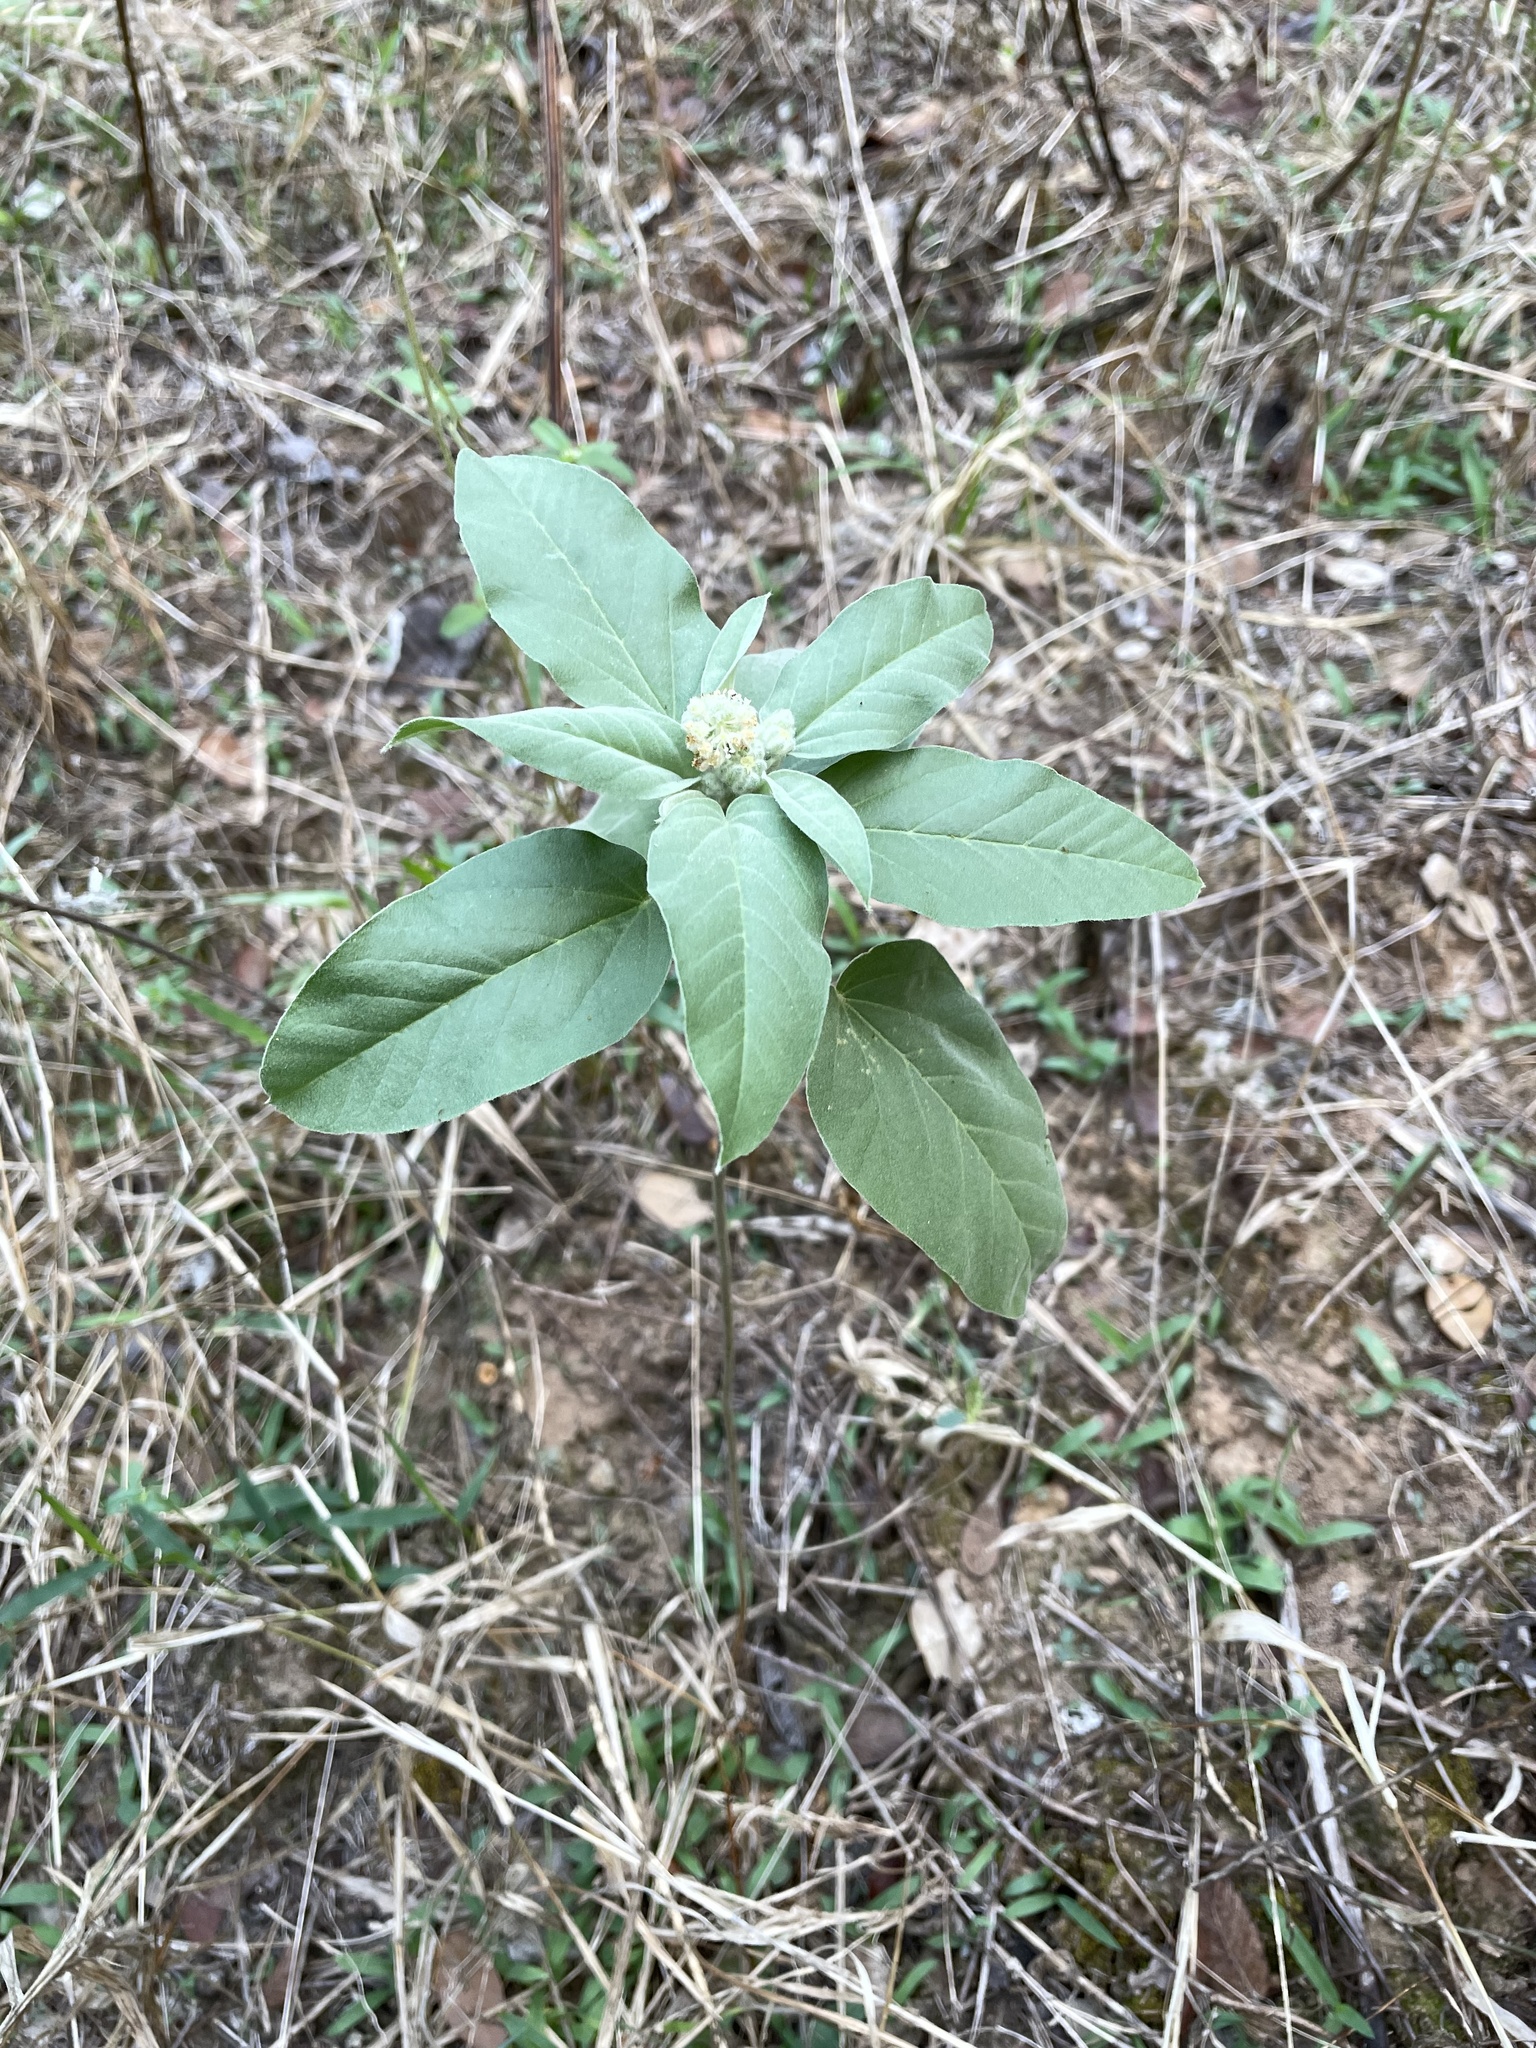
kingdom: Plantae
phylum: Tracheophyta
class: Magnoliopsida
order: Malpighiales
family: Euphorbiaceae
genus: Croton
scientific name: Croton lindheimeri
